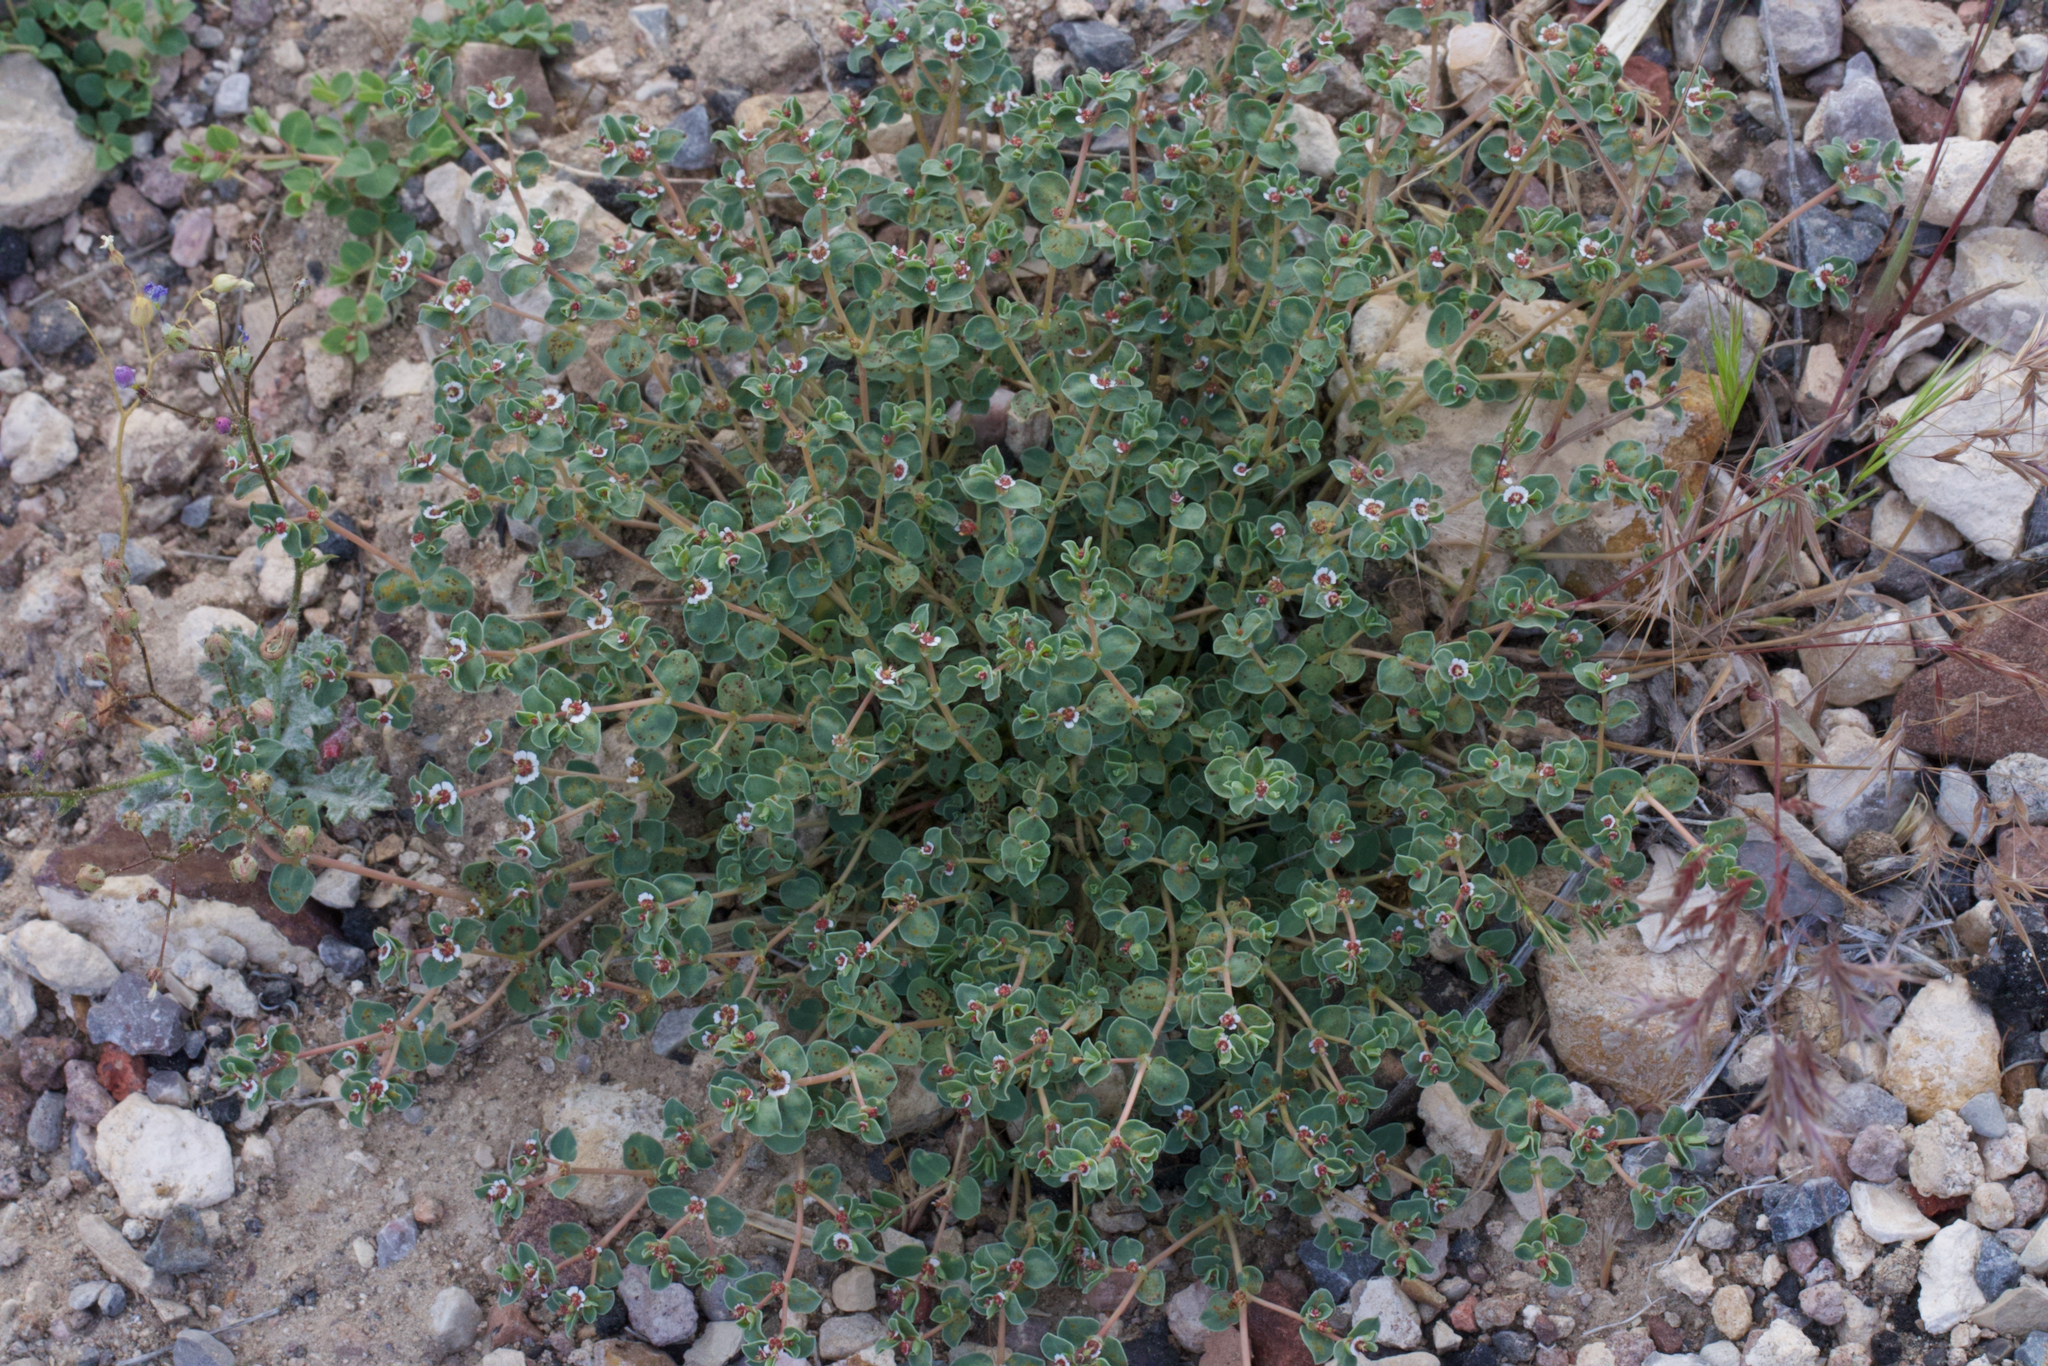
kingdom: Plantae
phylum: Tracheophyta
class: Magnoliopsida
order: Malpighiales
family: Euphorbiaceae
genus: Euphorbia
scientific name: Euphorbia albomarginata
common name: Whitemargin sandmat
